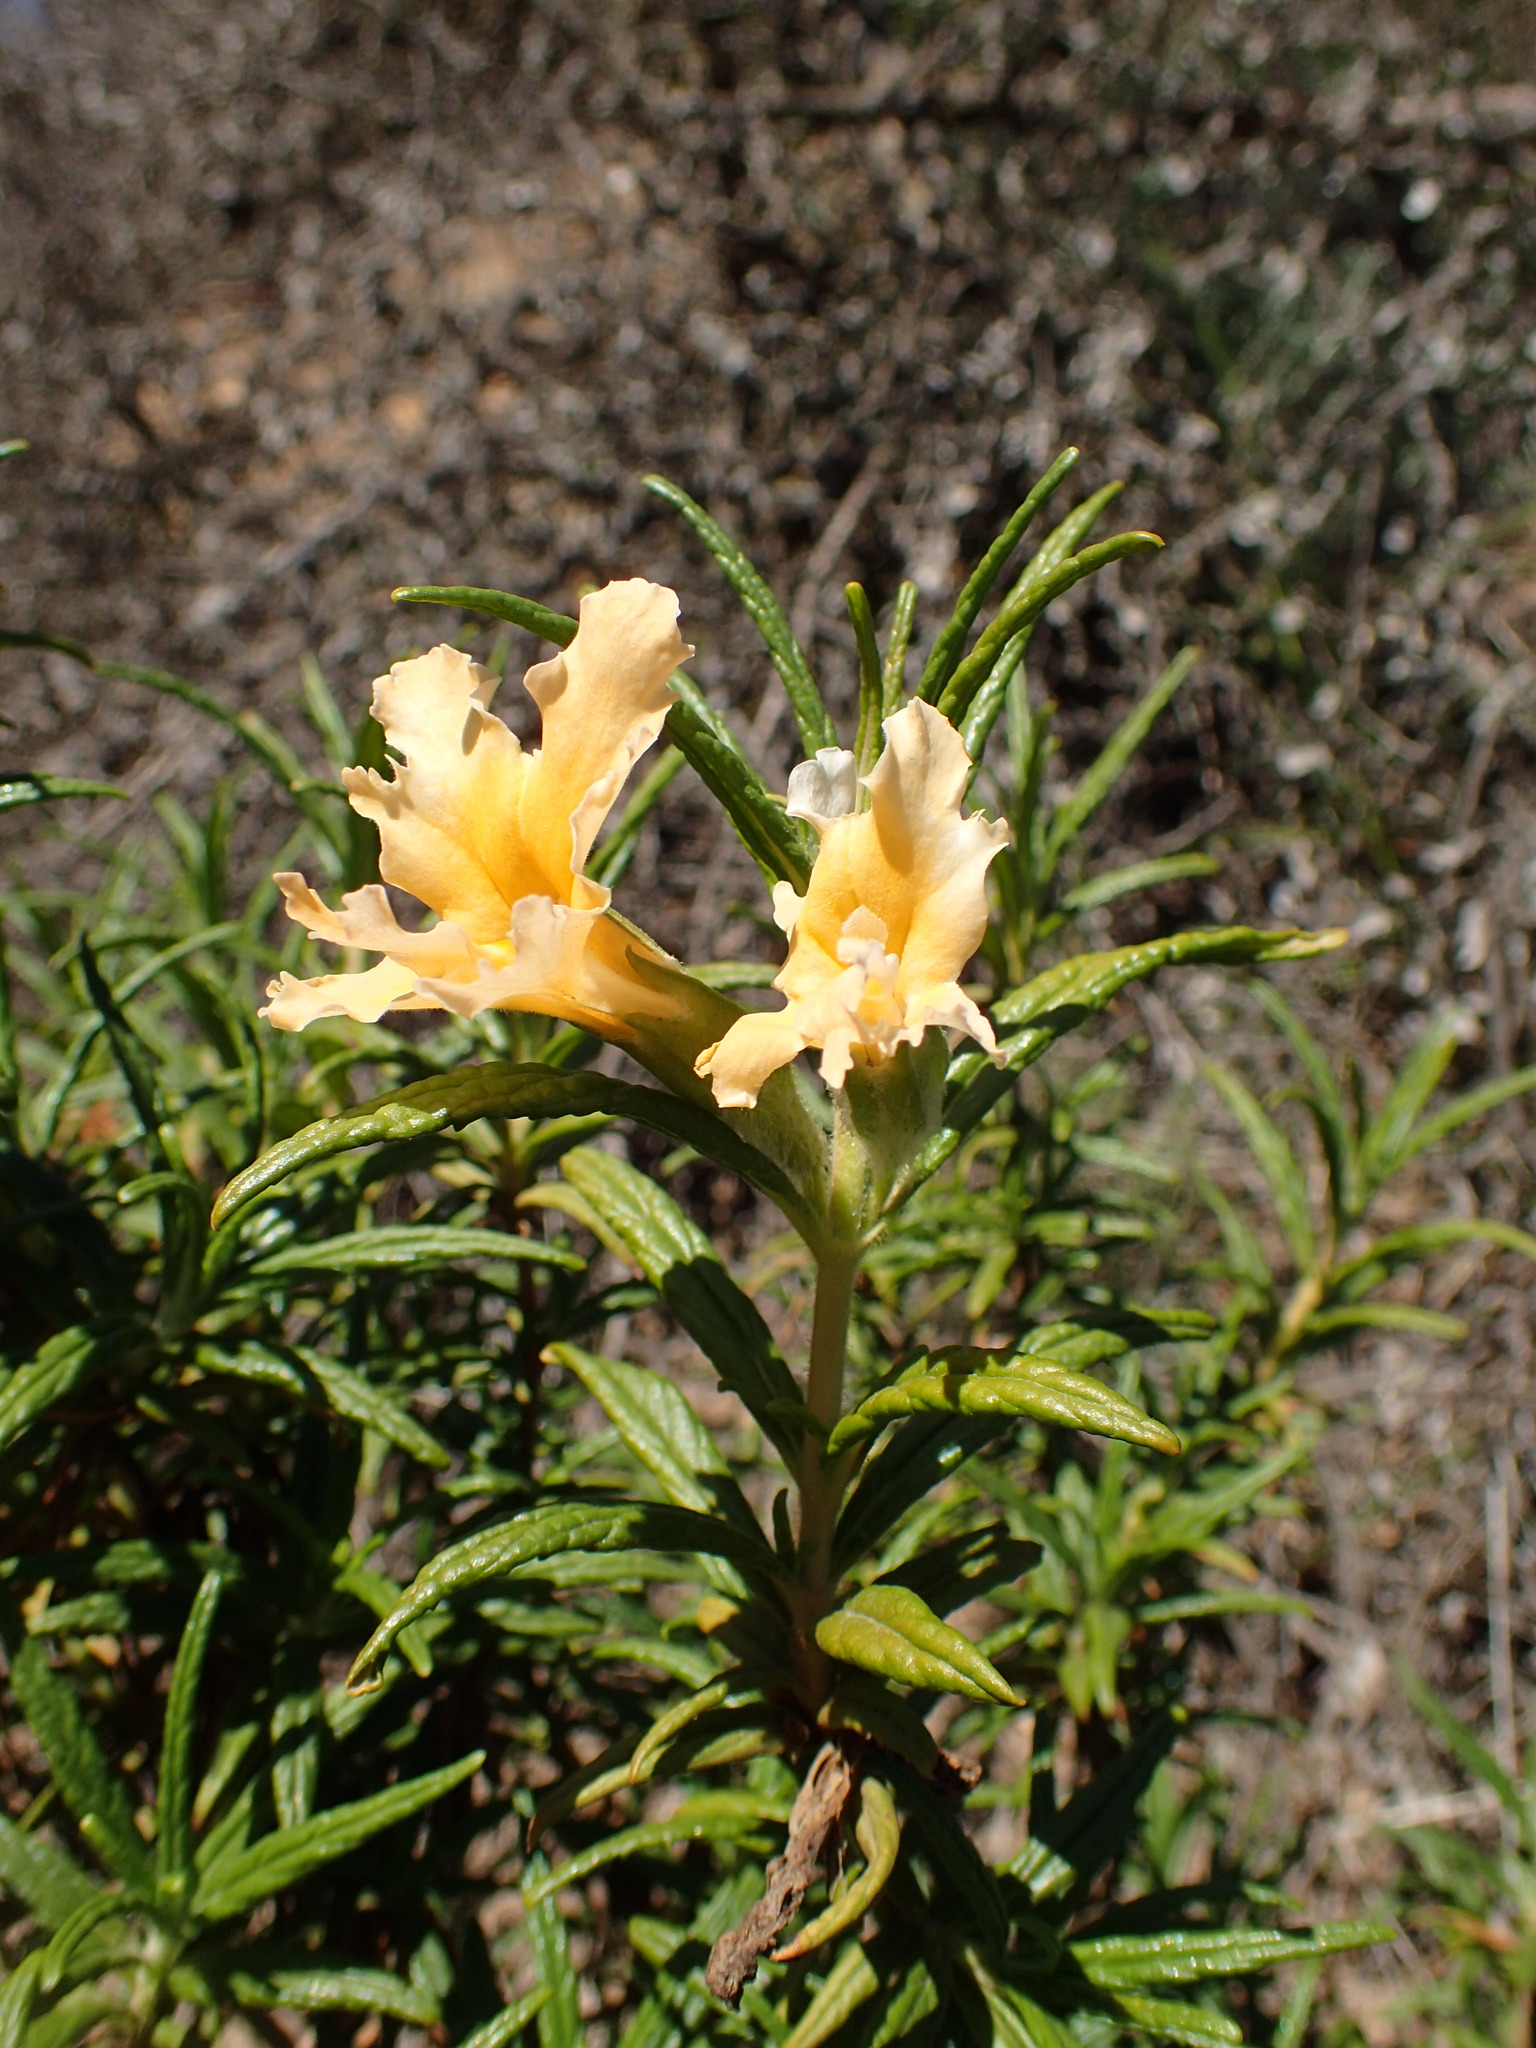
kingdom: Plantae
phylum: Tracheophyta
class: Magnoliopsida
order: Lamiales
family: Phrymaceae
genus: Diplacus
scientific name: Diplacus longiflorus
